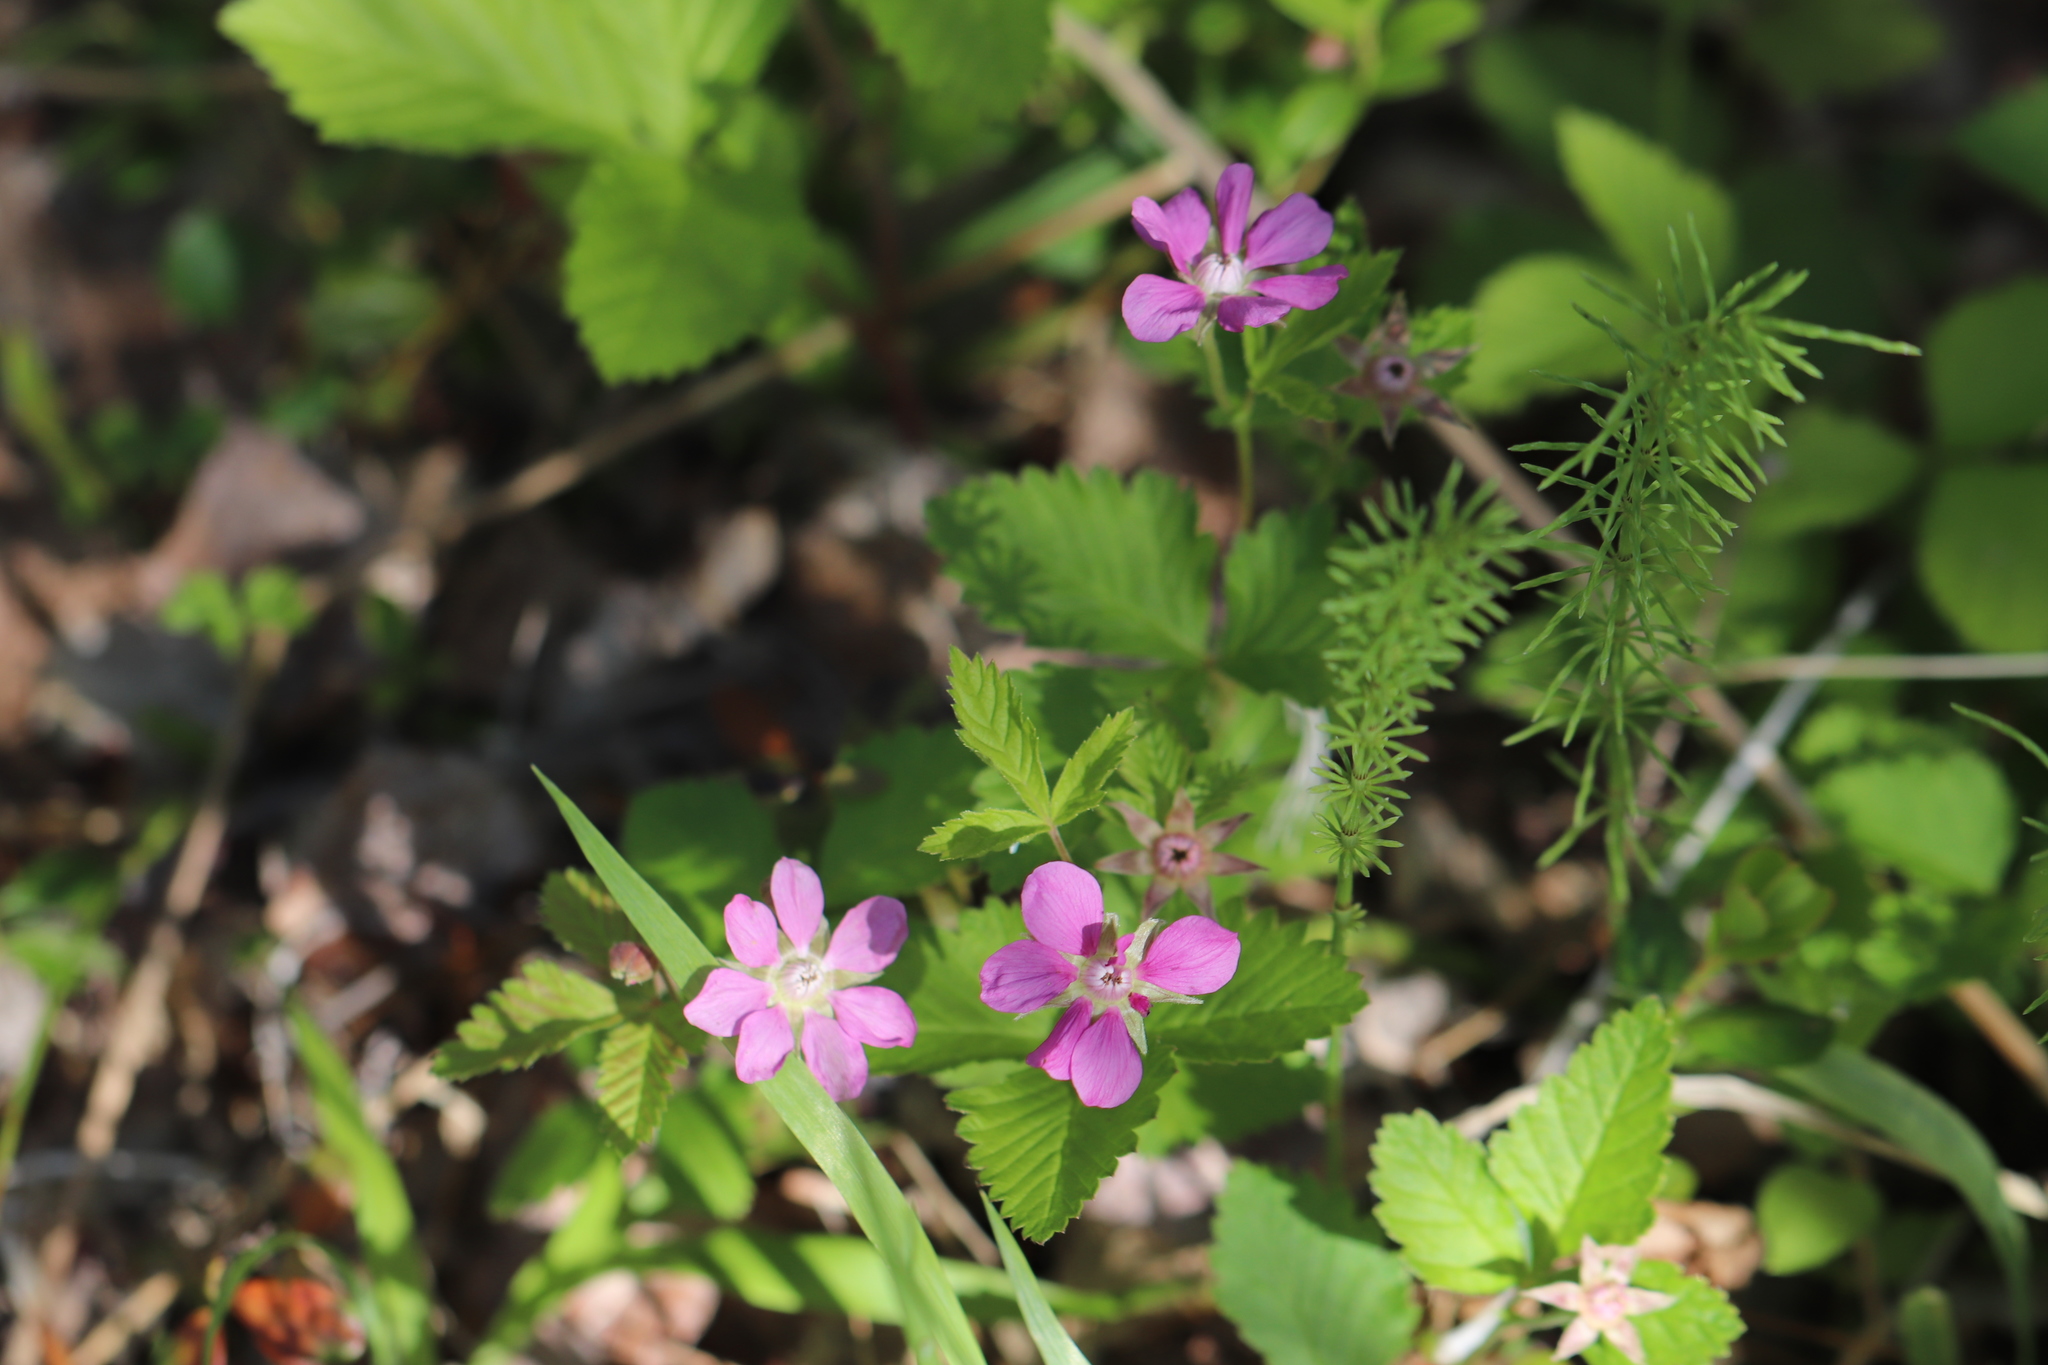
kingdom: Plantae
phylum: Tracheophyta
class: Magnoliopsida
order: Rosales
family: Rosaceae
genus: Rubus
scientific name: Rubus arcticus
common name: Arctic bramble
